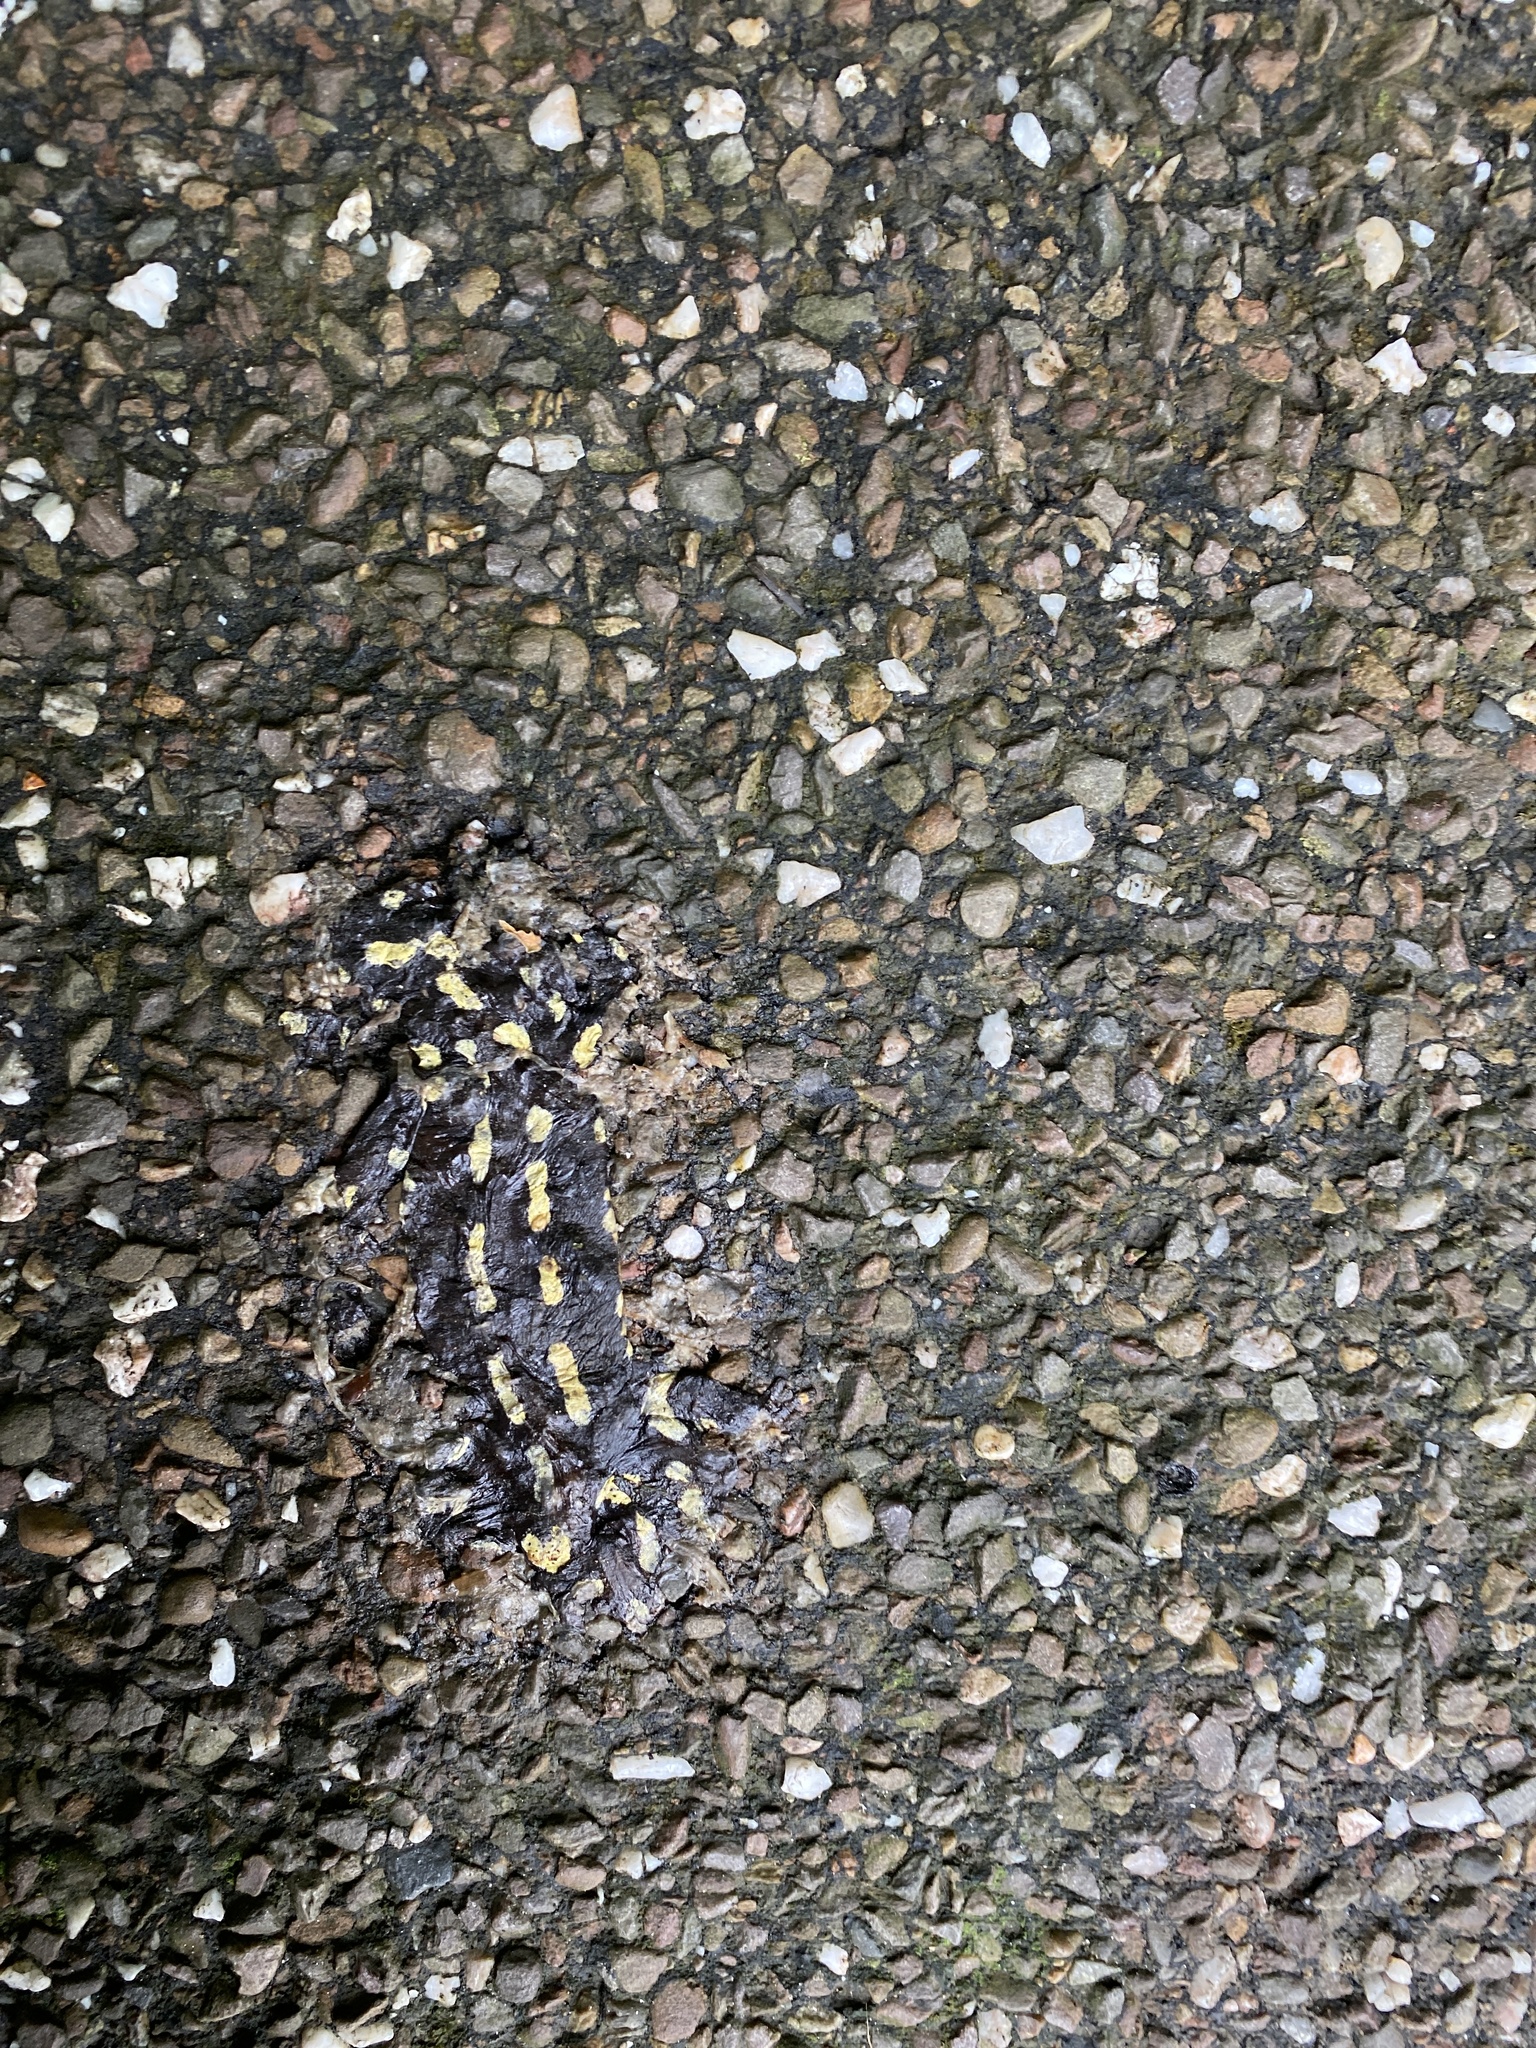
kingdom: Animalia
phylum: Chordata
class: Amphibia
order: Caudata
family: Salamandridae
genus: Salamandra
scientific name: Salamandra salamandra
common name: Fire salamander
